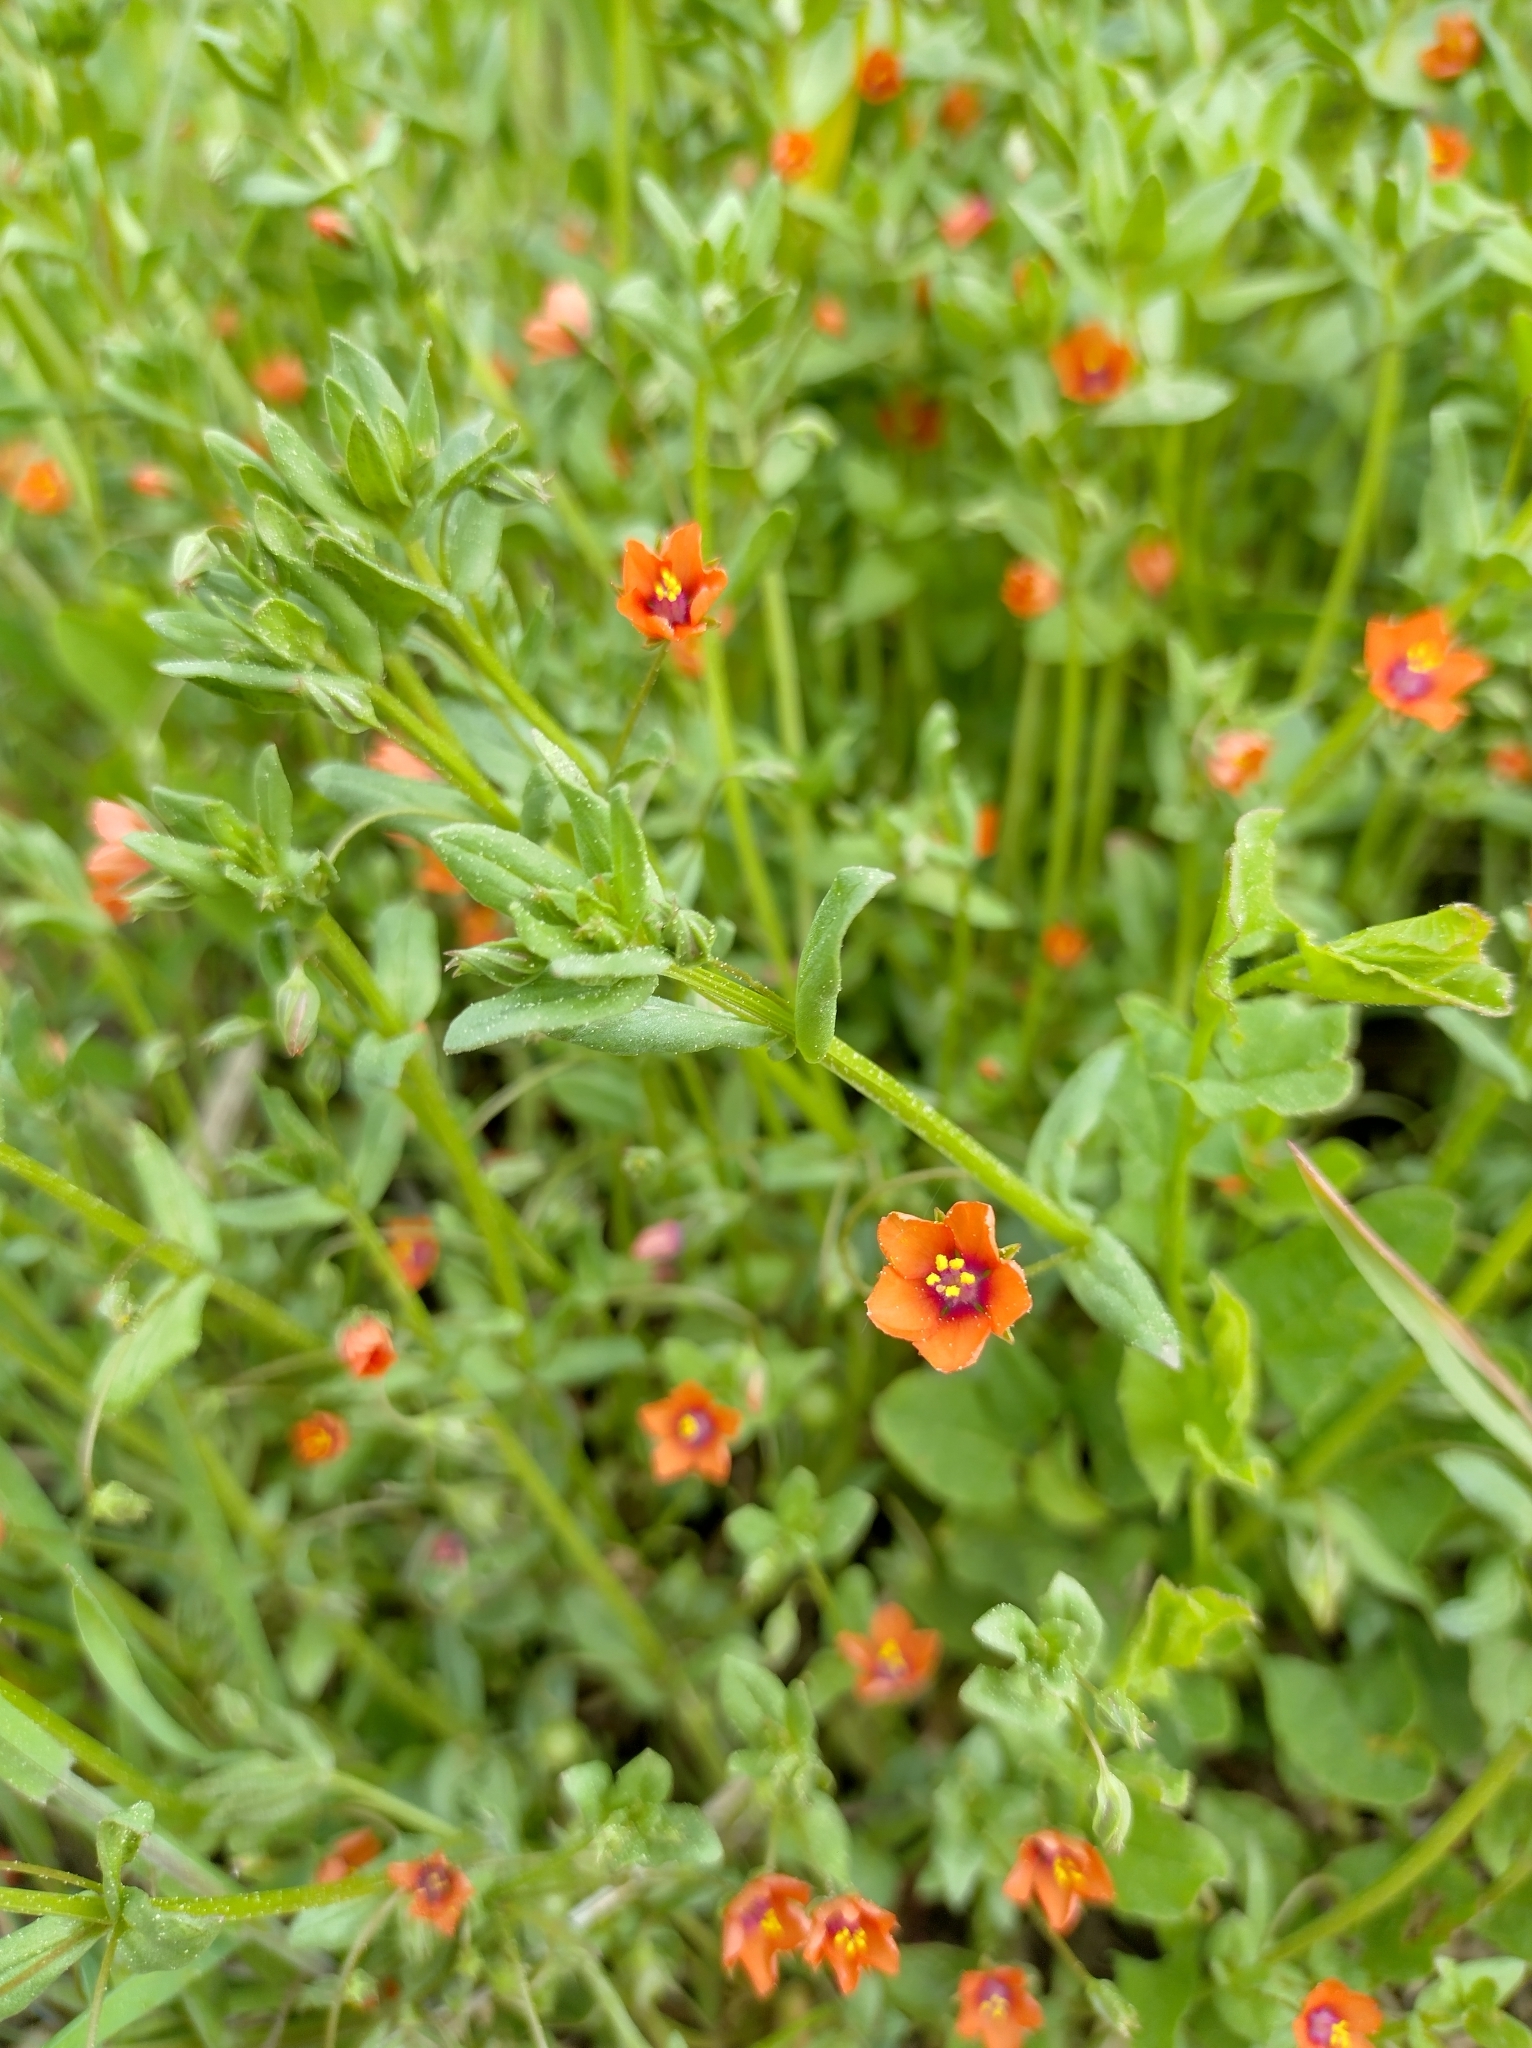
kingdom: Plantae
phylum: Tracheophyta
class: Magnoliopsida
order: Ericales
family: Primulaceae
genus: Lysimachia
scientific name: Lysimachia arvensis
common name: Scarlet pimpernel
